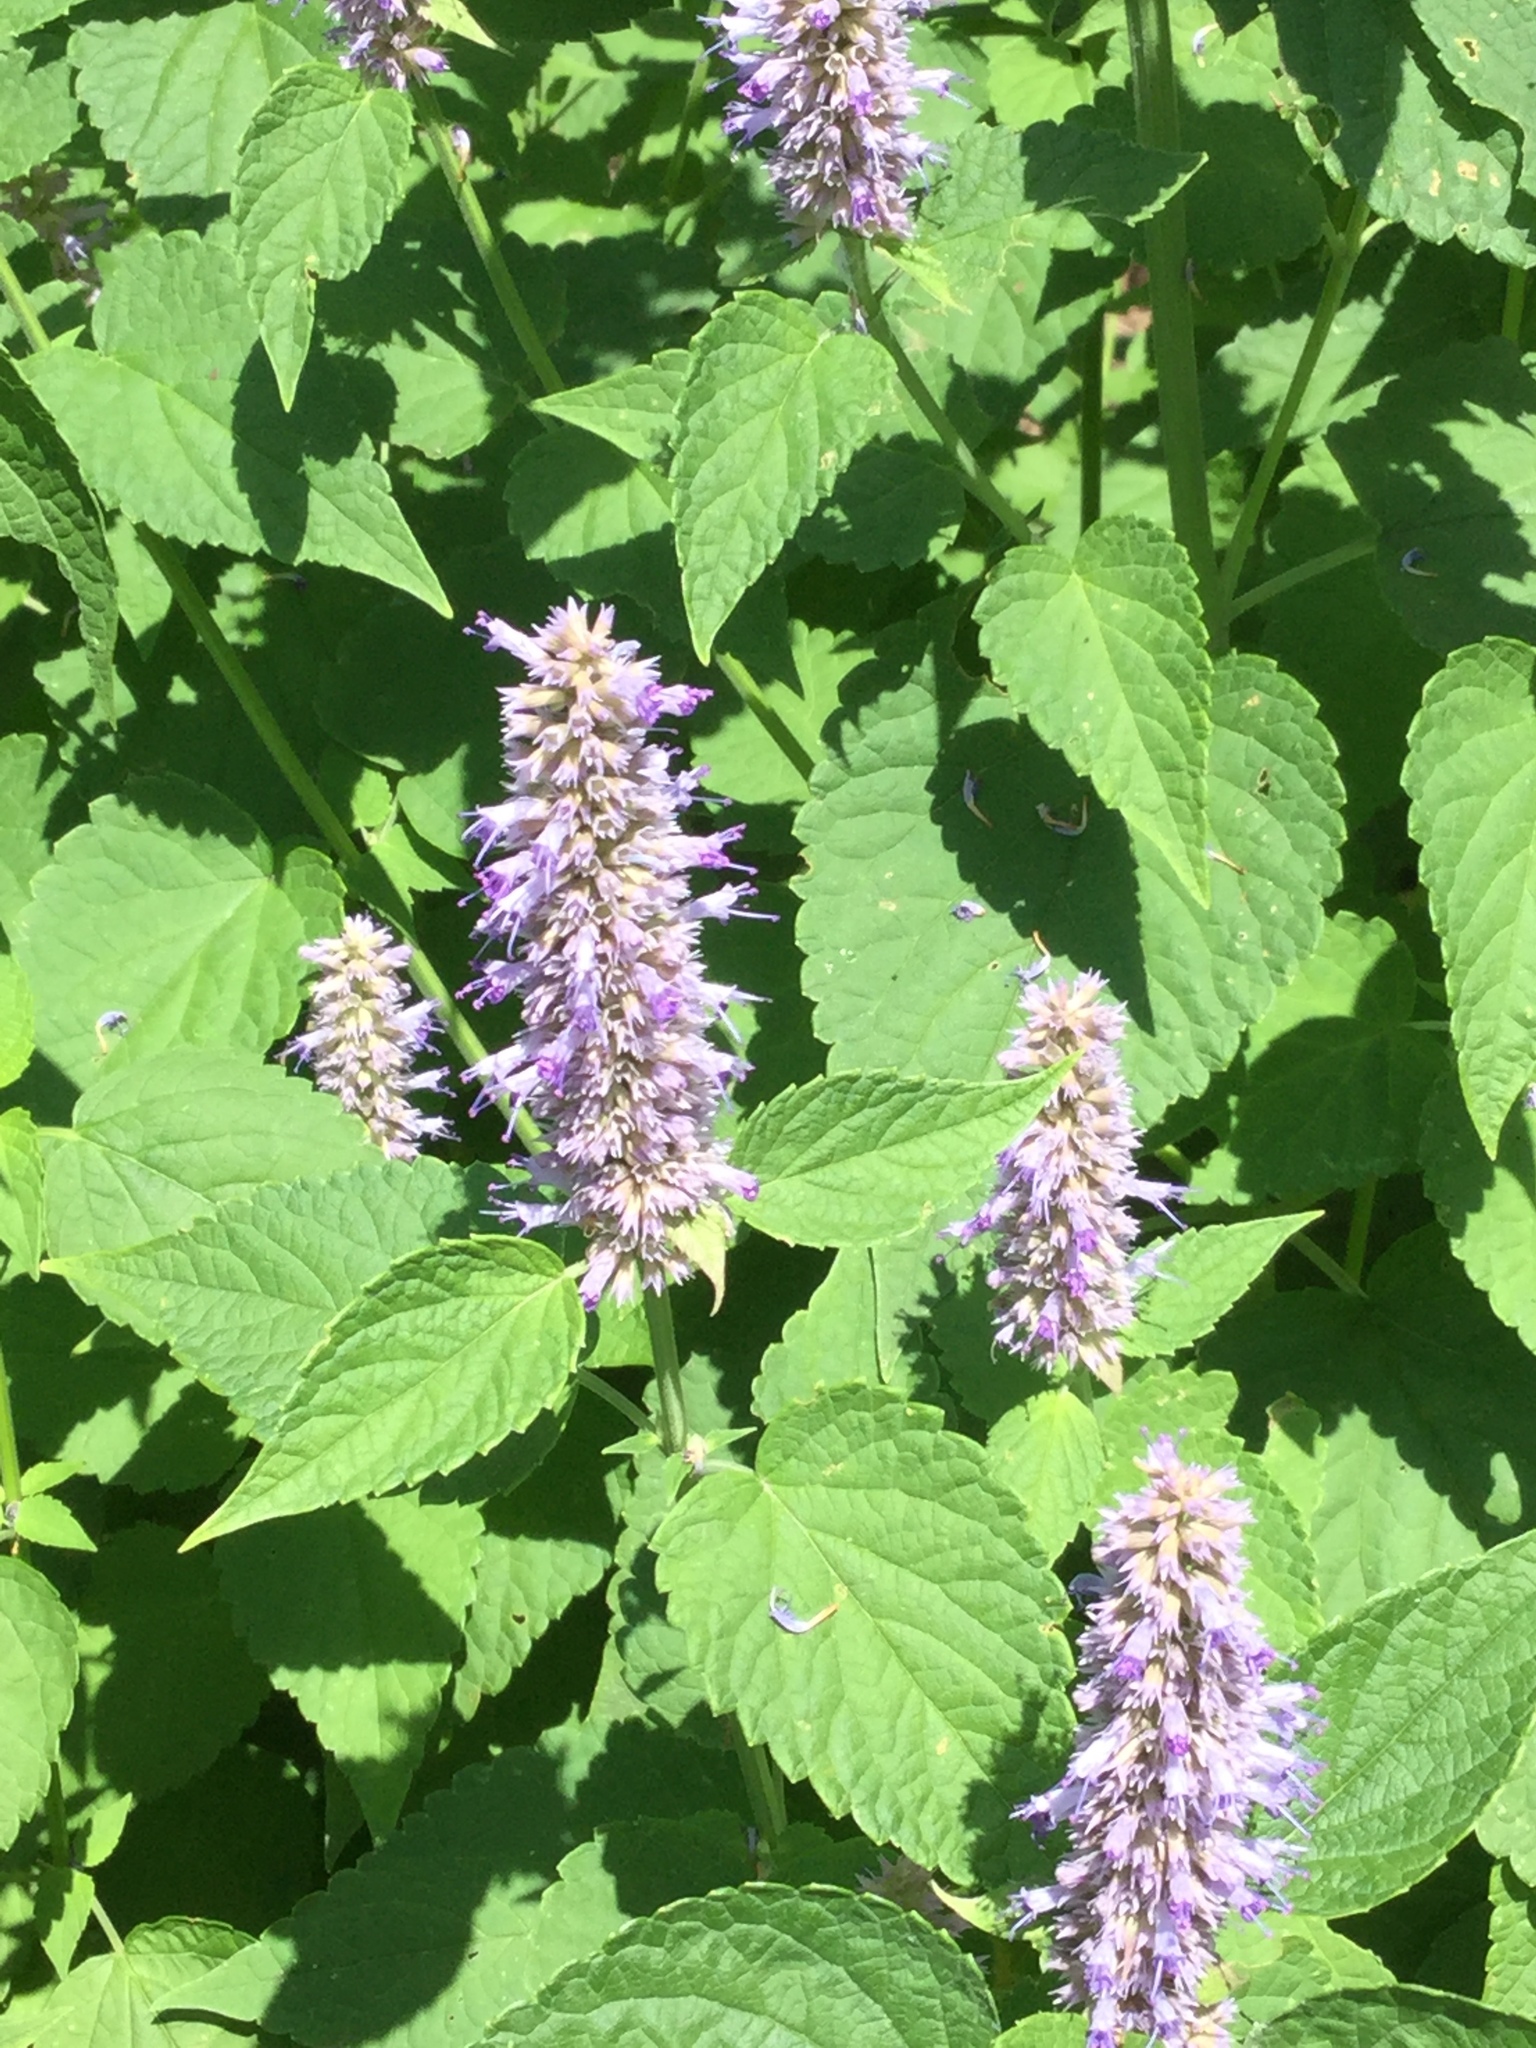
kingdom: Plantae
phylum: Tracheophyta
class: Magnoliopsida
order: Lamiales
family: Lamiaceae
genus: Agastache
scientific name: Agastache foeniculum
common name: Anise hyssop
